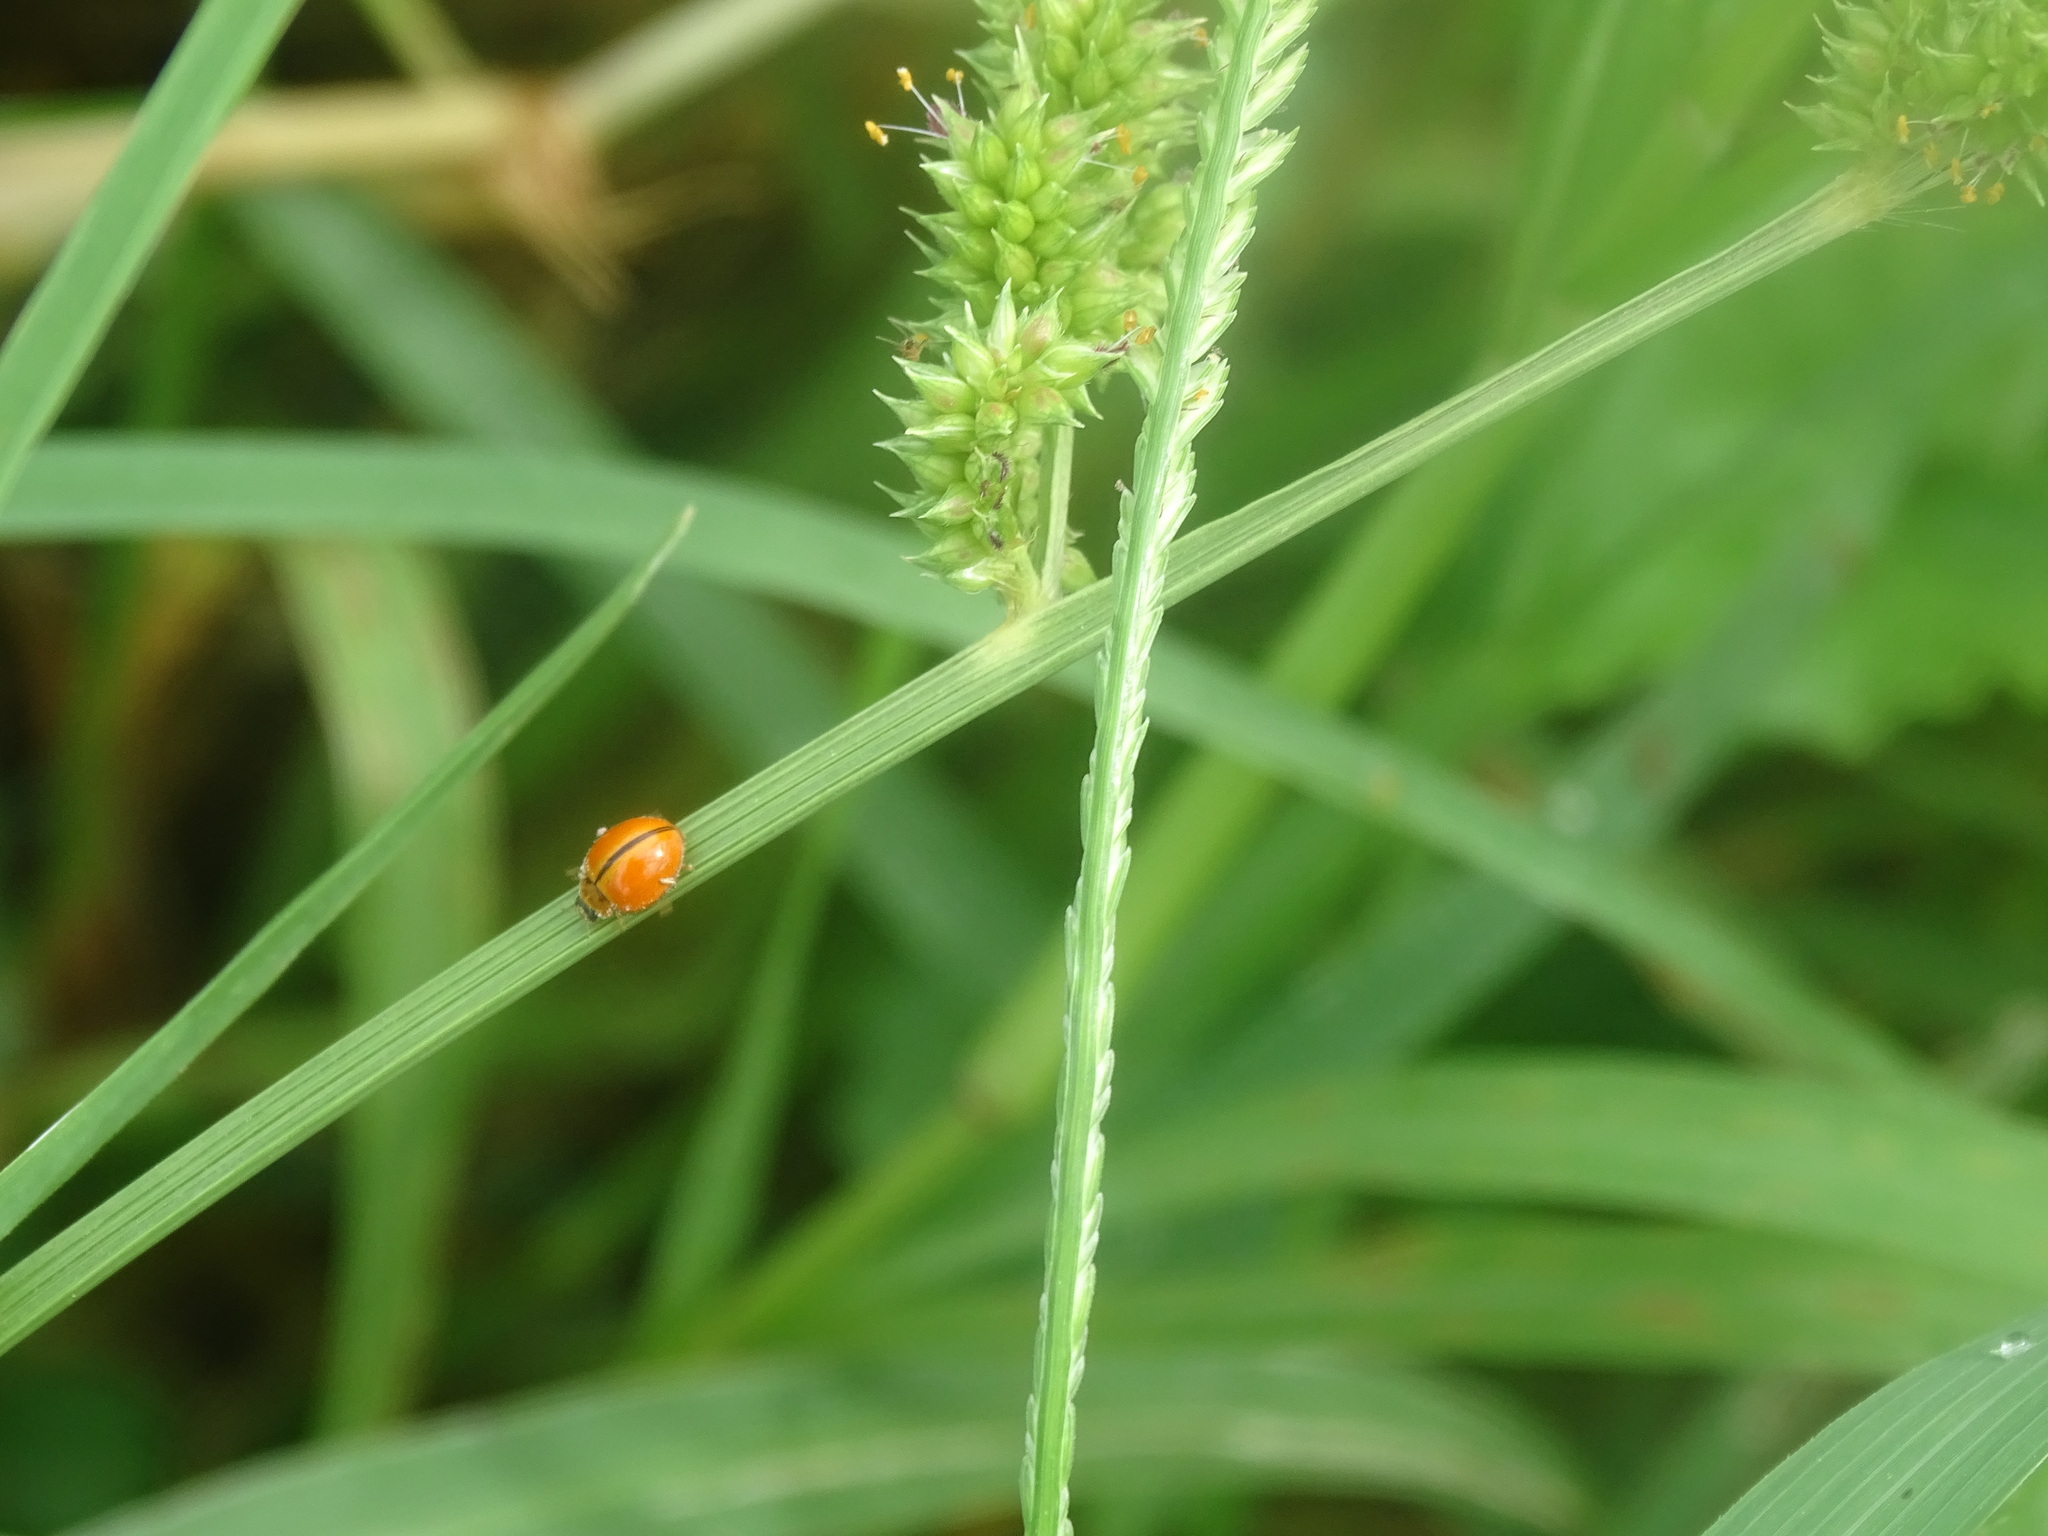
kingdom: Animalia
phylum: Arthropoda
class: Insecta
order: Coleoptera
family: Coccinellidae
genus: Micraspis
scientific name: Micraspis discolor
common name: Lady beetle
